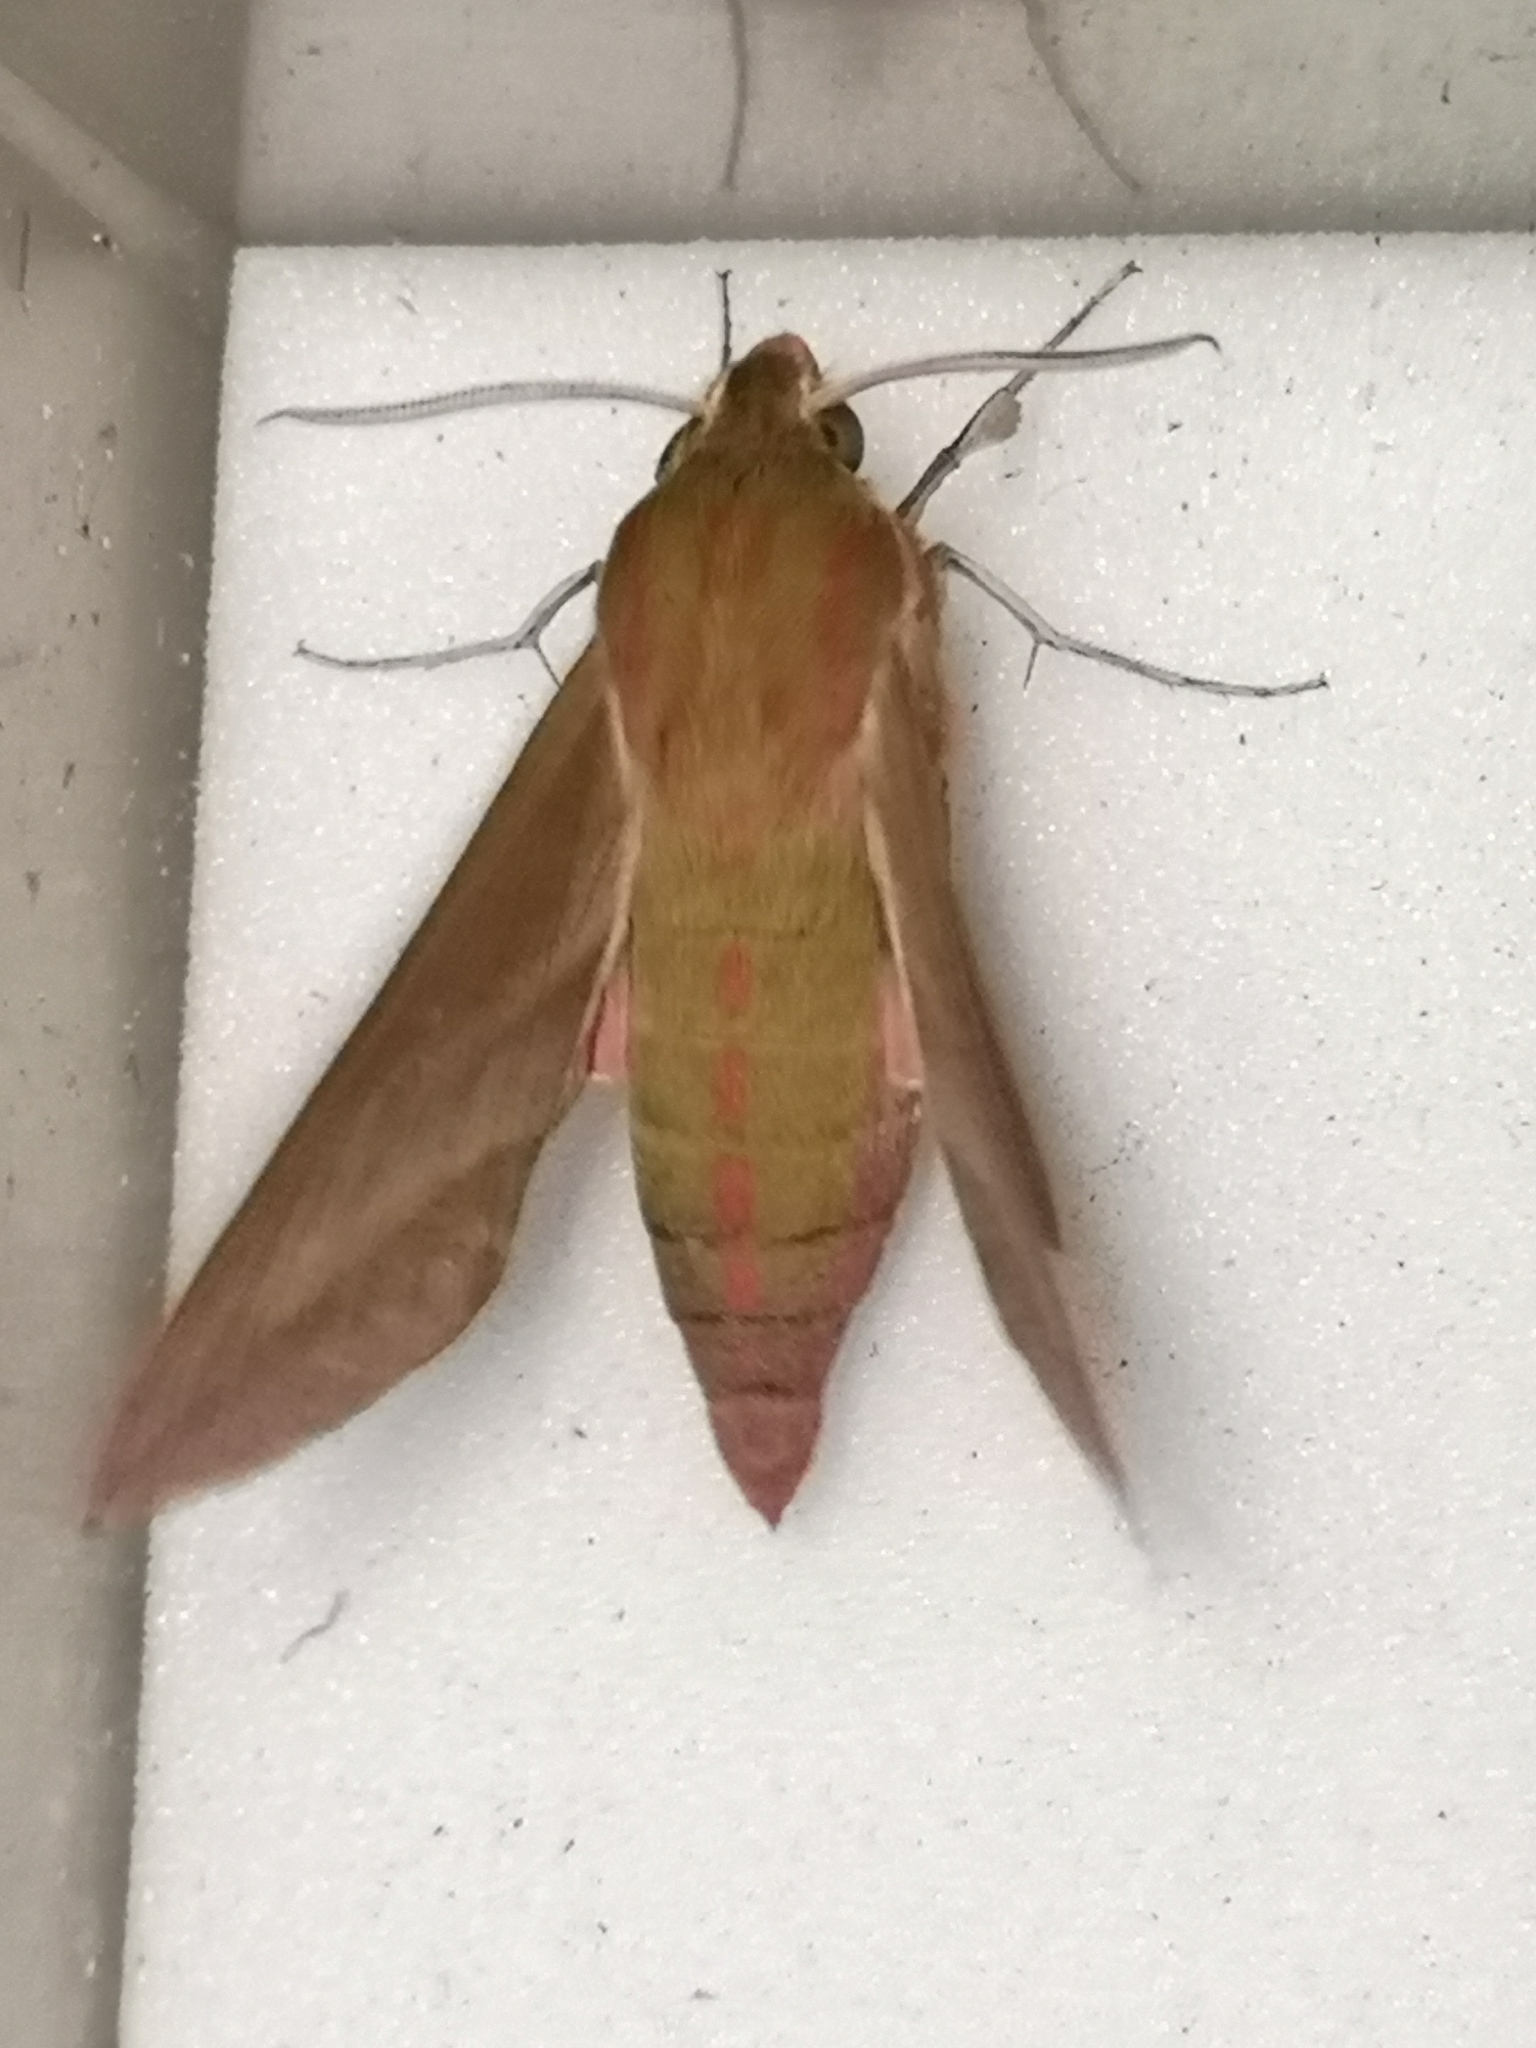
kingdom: Animalia
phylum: Arthropoda
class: Insecta
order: Lepidoptera
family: Sphingidae
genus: Deilephila
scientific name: Deilephila elpenor
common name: Elephant hawk-moth
